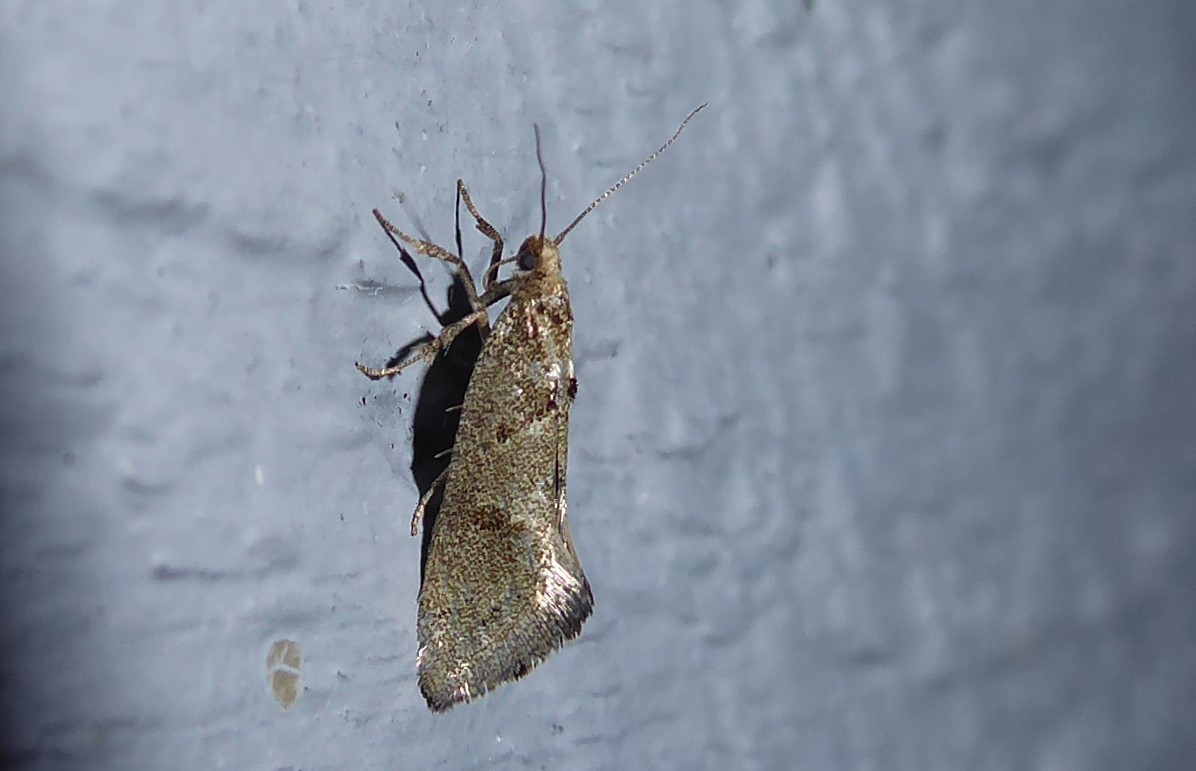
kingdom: Animalia
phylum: Arthropoda
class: Insecta
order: Lepidoptera
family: Oecophoridae
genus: Tingena
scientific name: Tingena brachyacma
